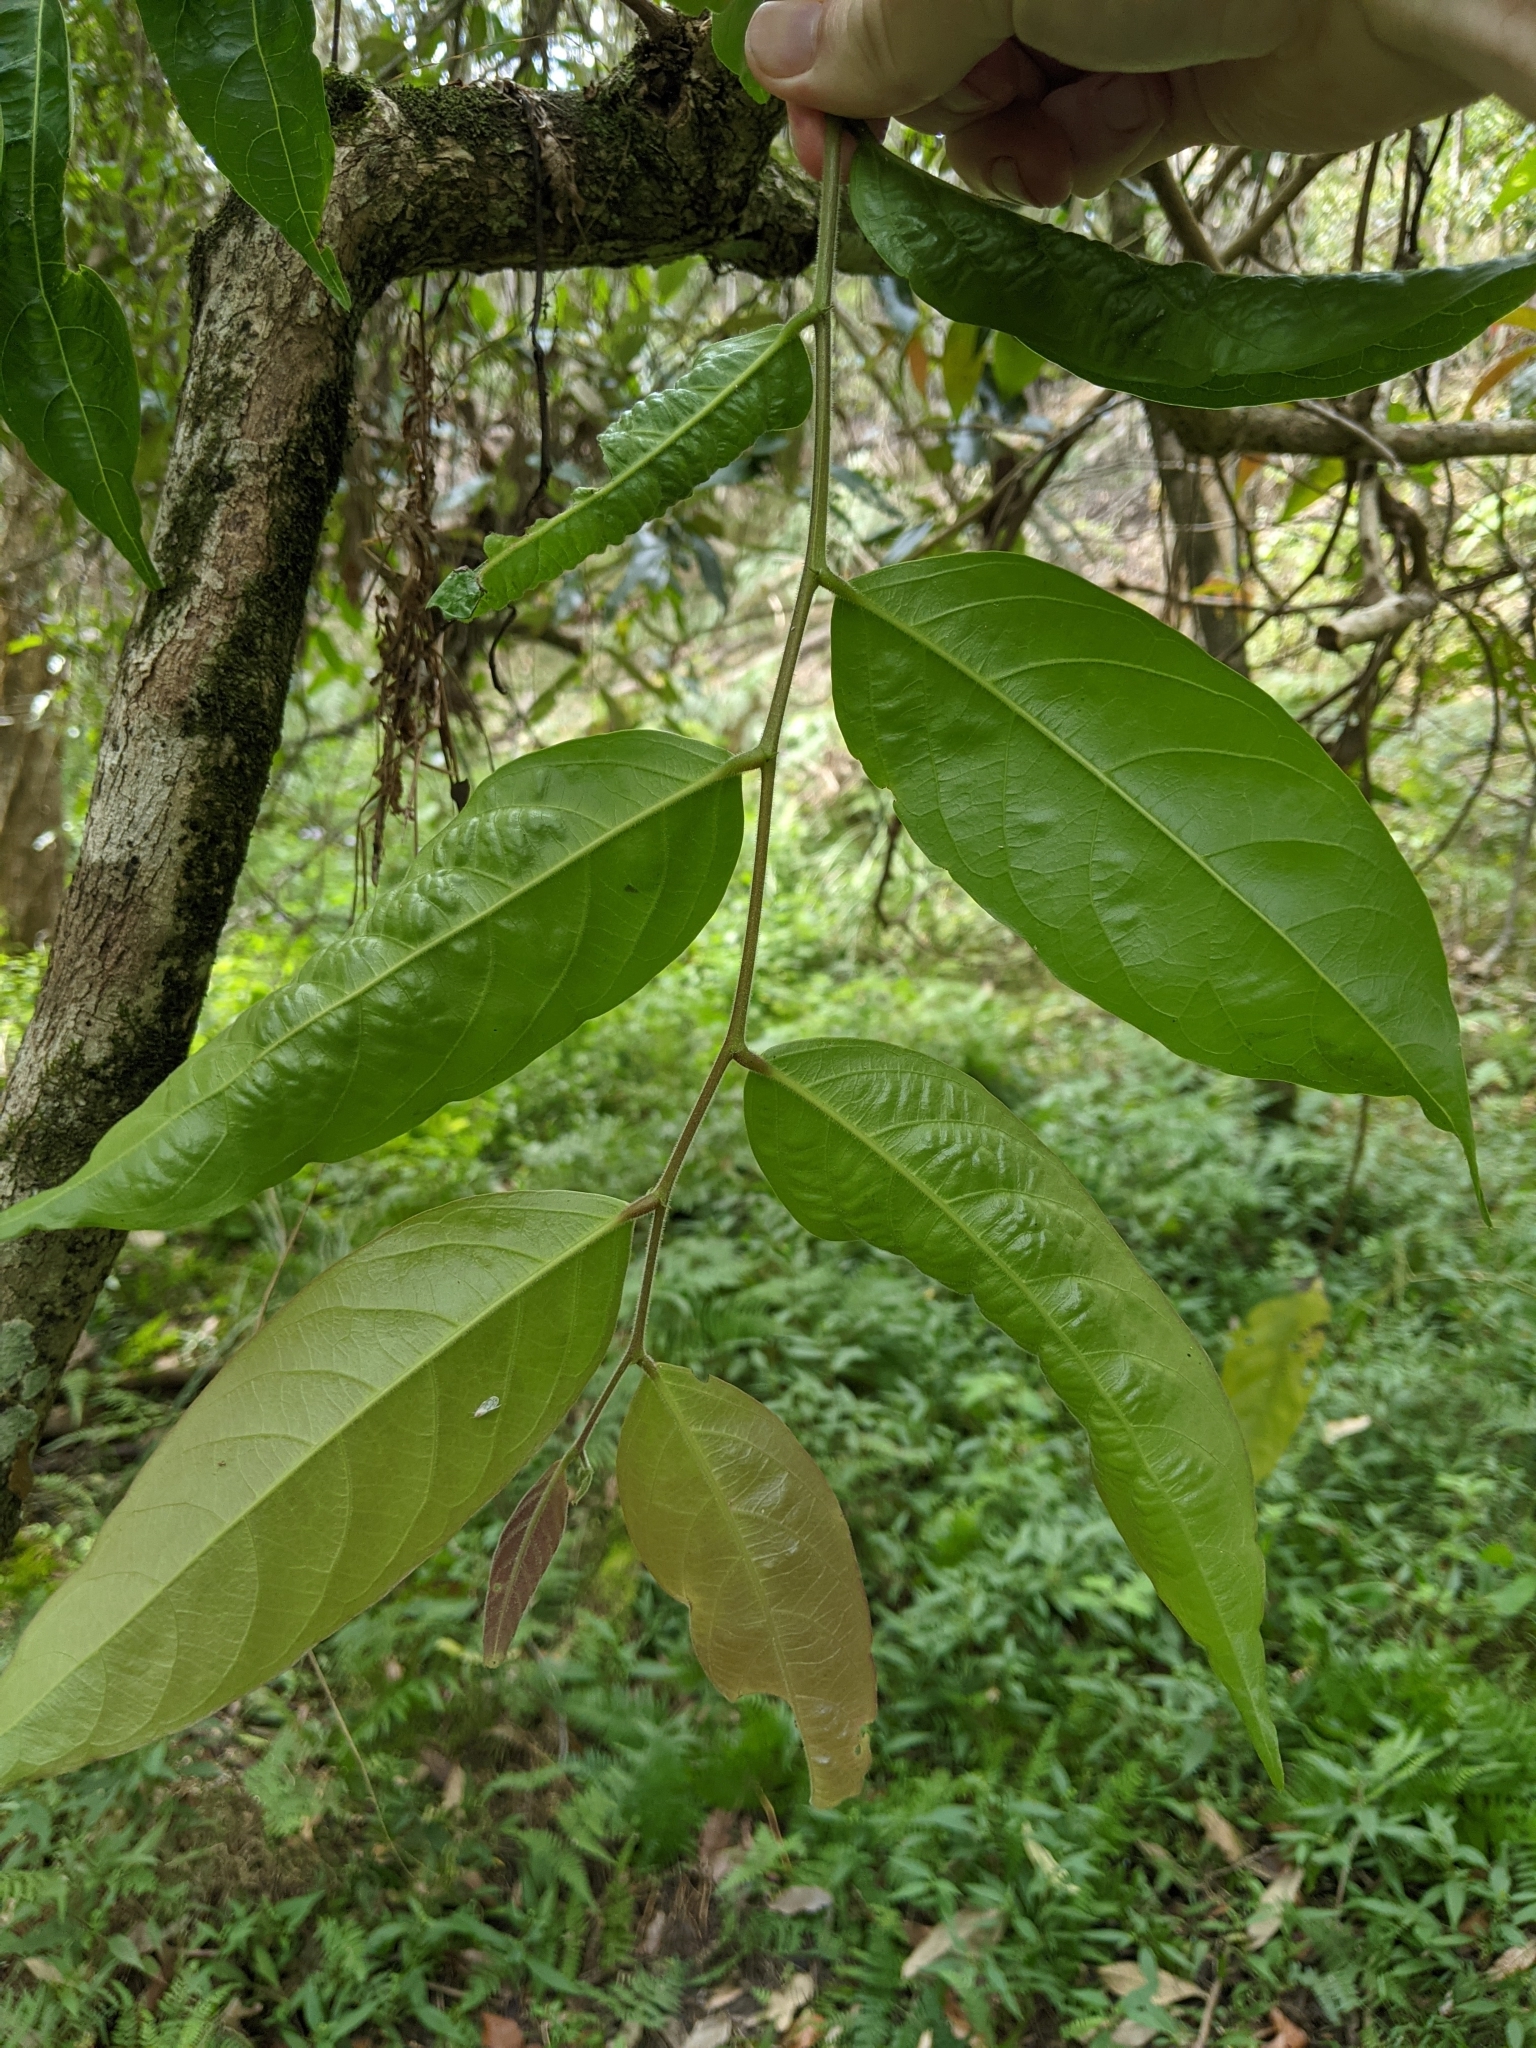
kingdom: Plantae
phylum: Tracheophyta
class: Magnoliopsida
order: Malpighiales
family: Phyllanthaceae
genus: Glochidion
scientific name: Glochidion zeylanicum
